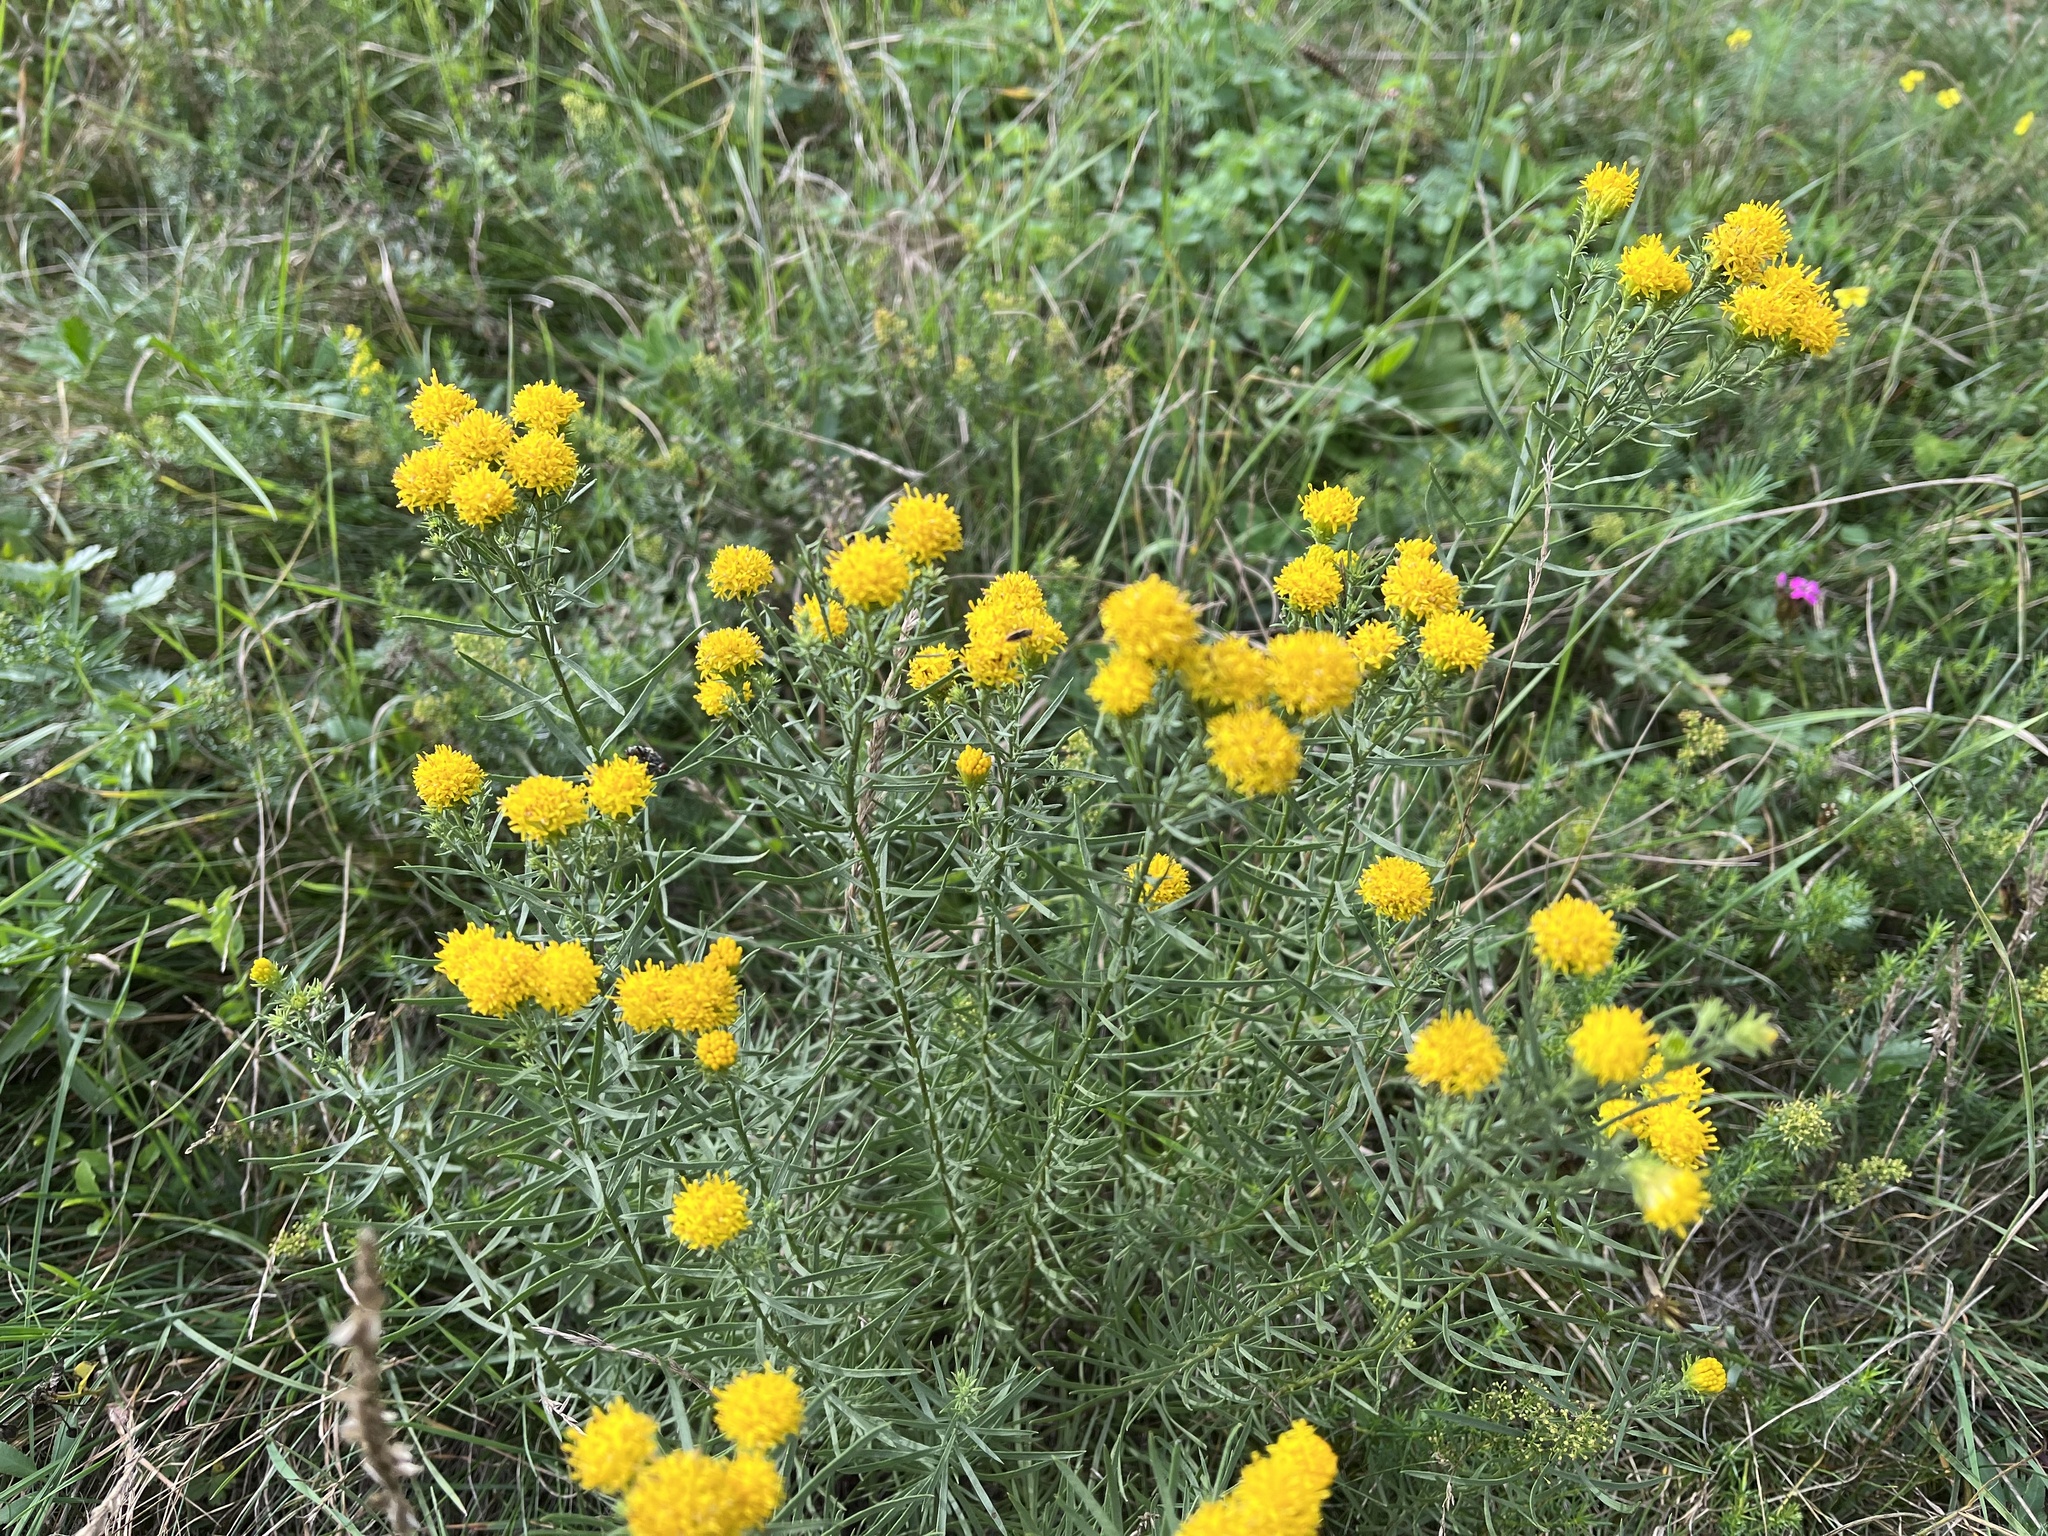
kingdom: Plantae
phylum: Tracheophyta
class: Magnoliopsida
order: Asterales
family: Asteraceae
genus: Galatella
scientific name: Galatella linosyris
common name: Goldilocks aster
